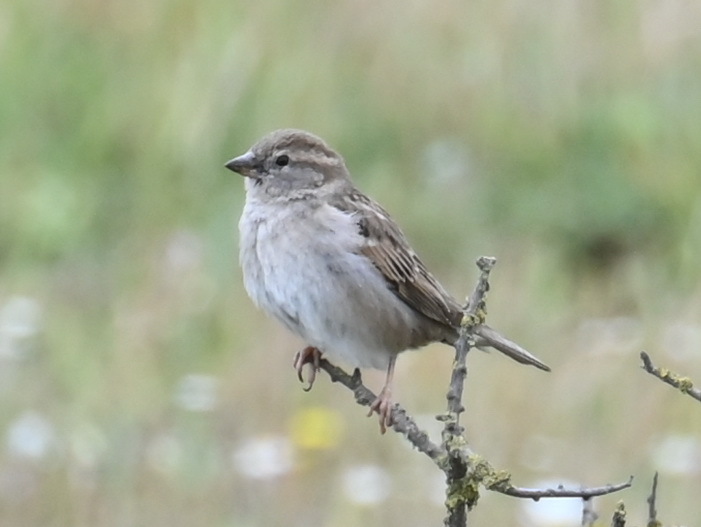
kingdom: Animalia
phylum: Chordata
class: Aves
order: Passeriformes
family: Passeridae
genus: Passer
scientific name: Passer domesticus
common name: House sparrow
